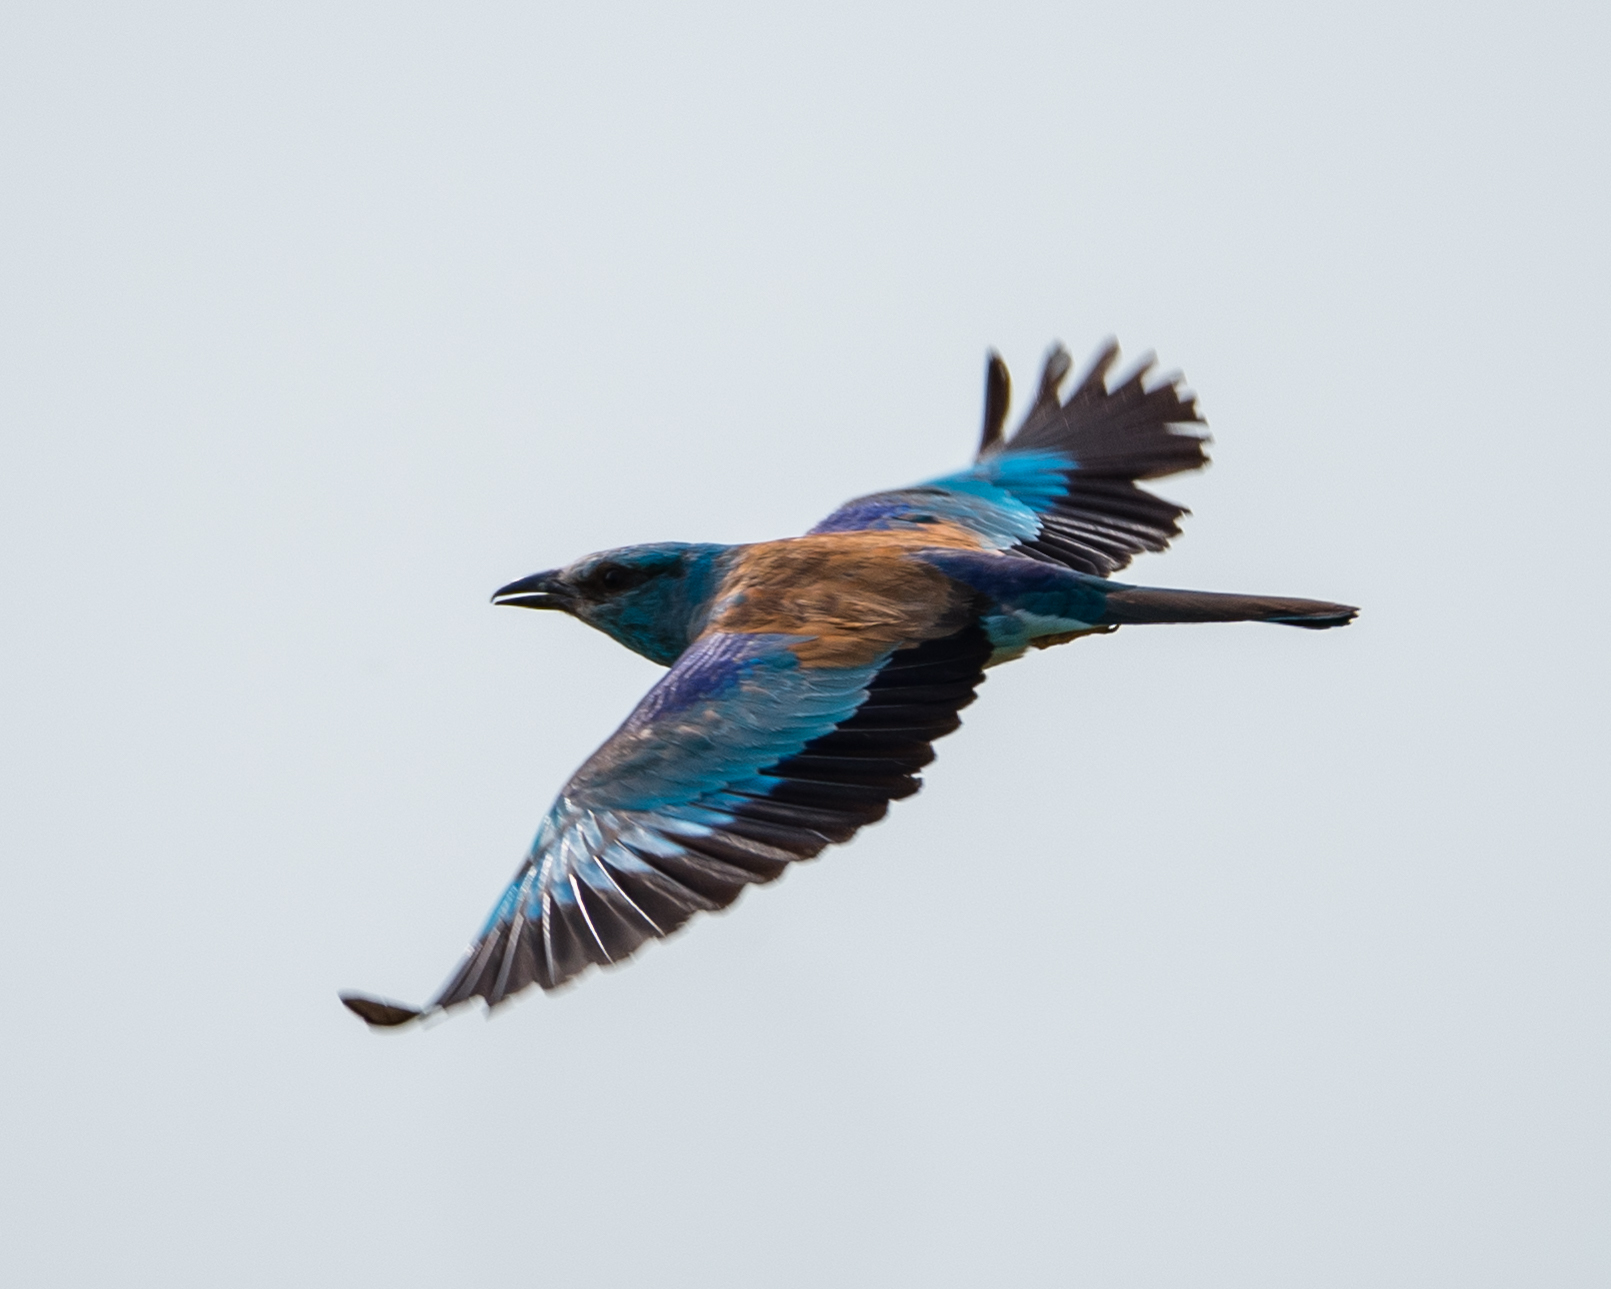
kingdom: Animalia
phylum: Chordata
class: Aves
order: Coraciiformes
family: Coraciidae
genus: Coracias
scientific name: Coracias garrulus
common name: European roller
